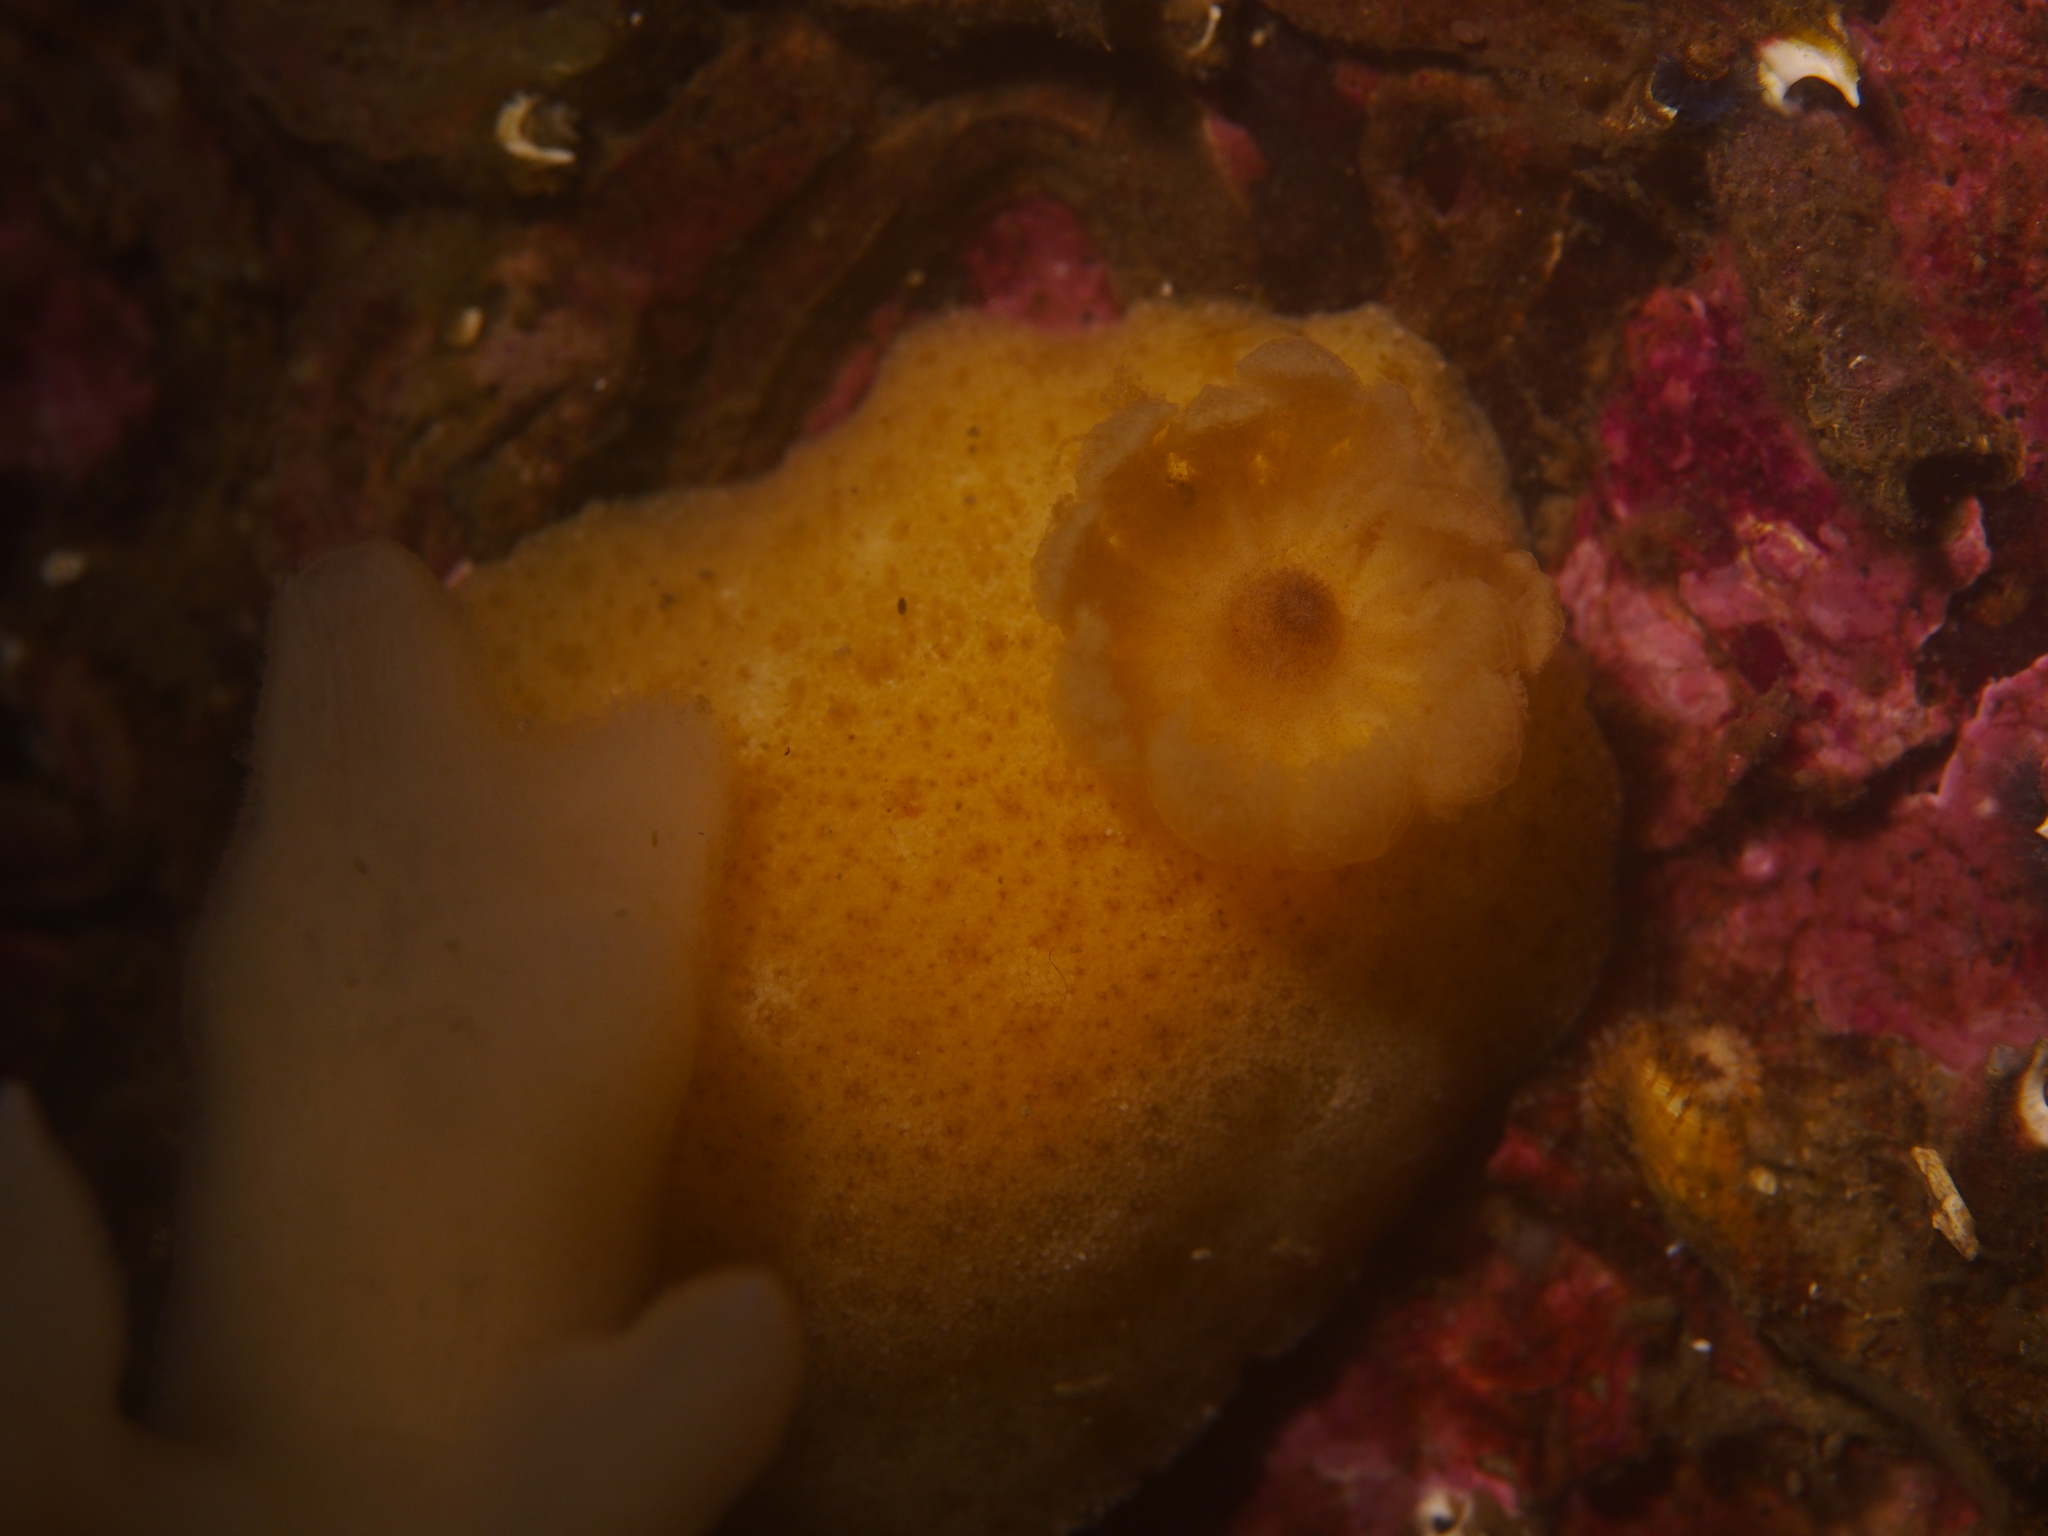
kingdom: Animalia
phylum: Mollusca
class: Gastropoda
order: Nudibranchia
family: Discodorididae
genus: Jorunna
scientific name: Jorunna tomentosa
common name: Grey sea slug
